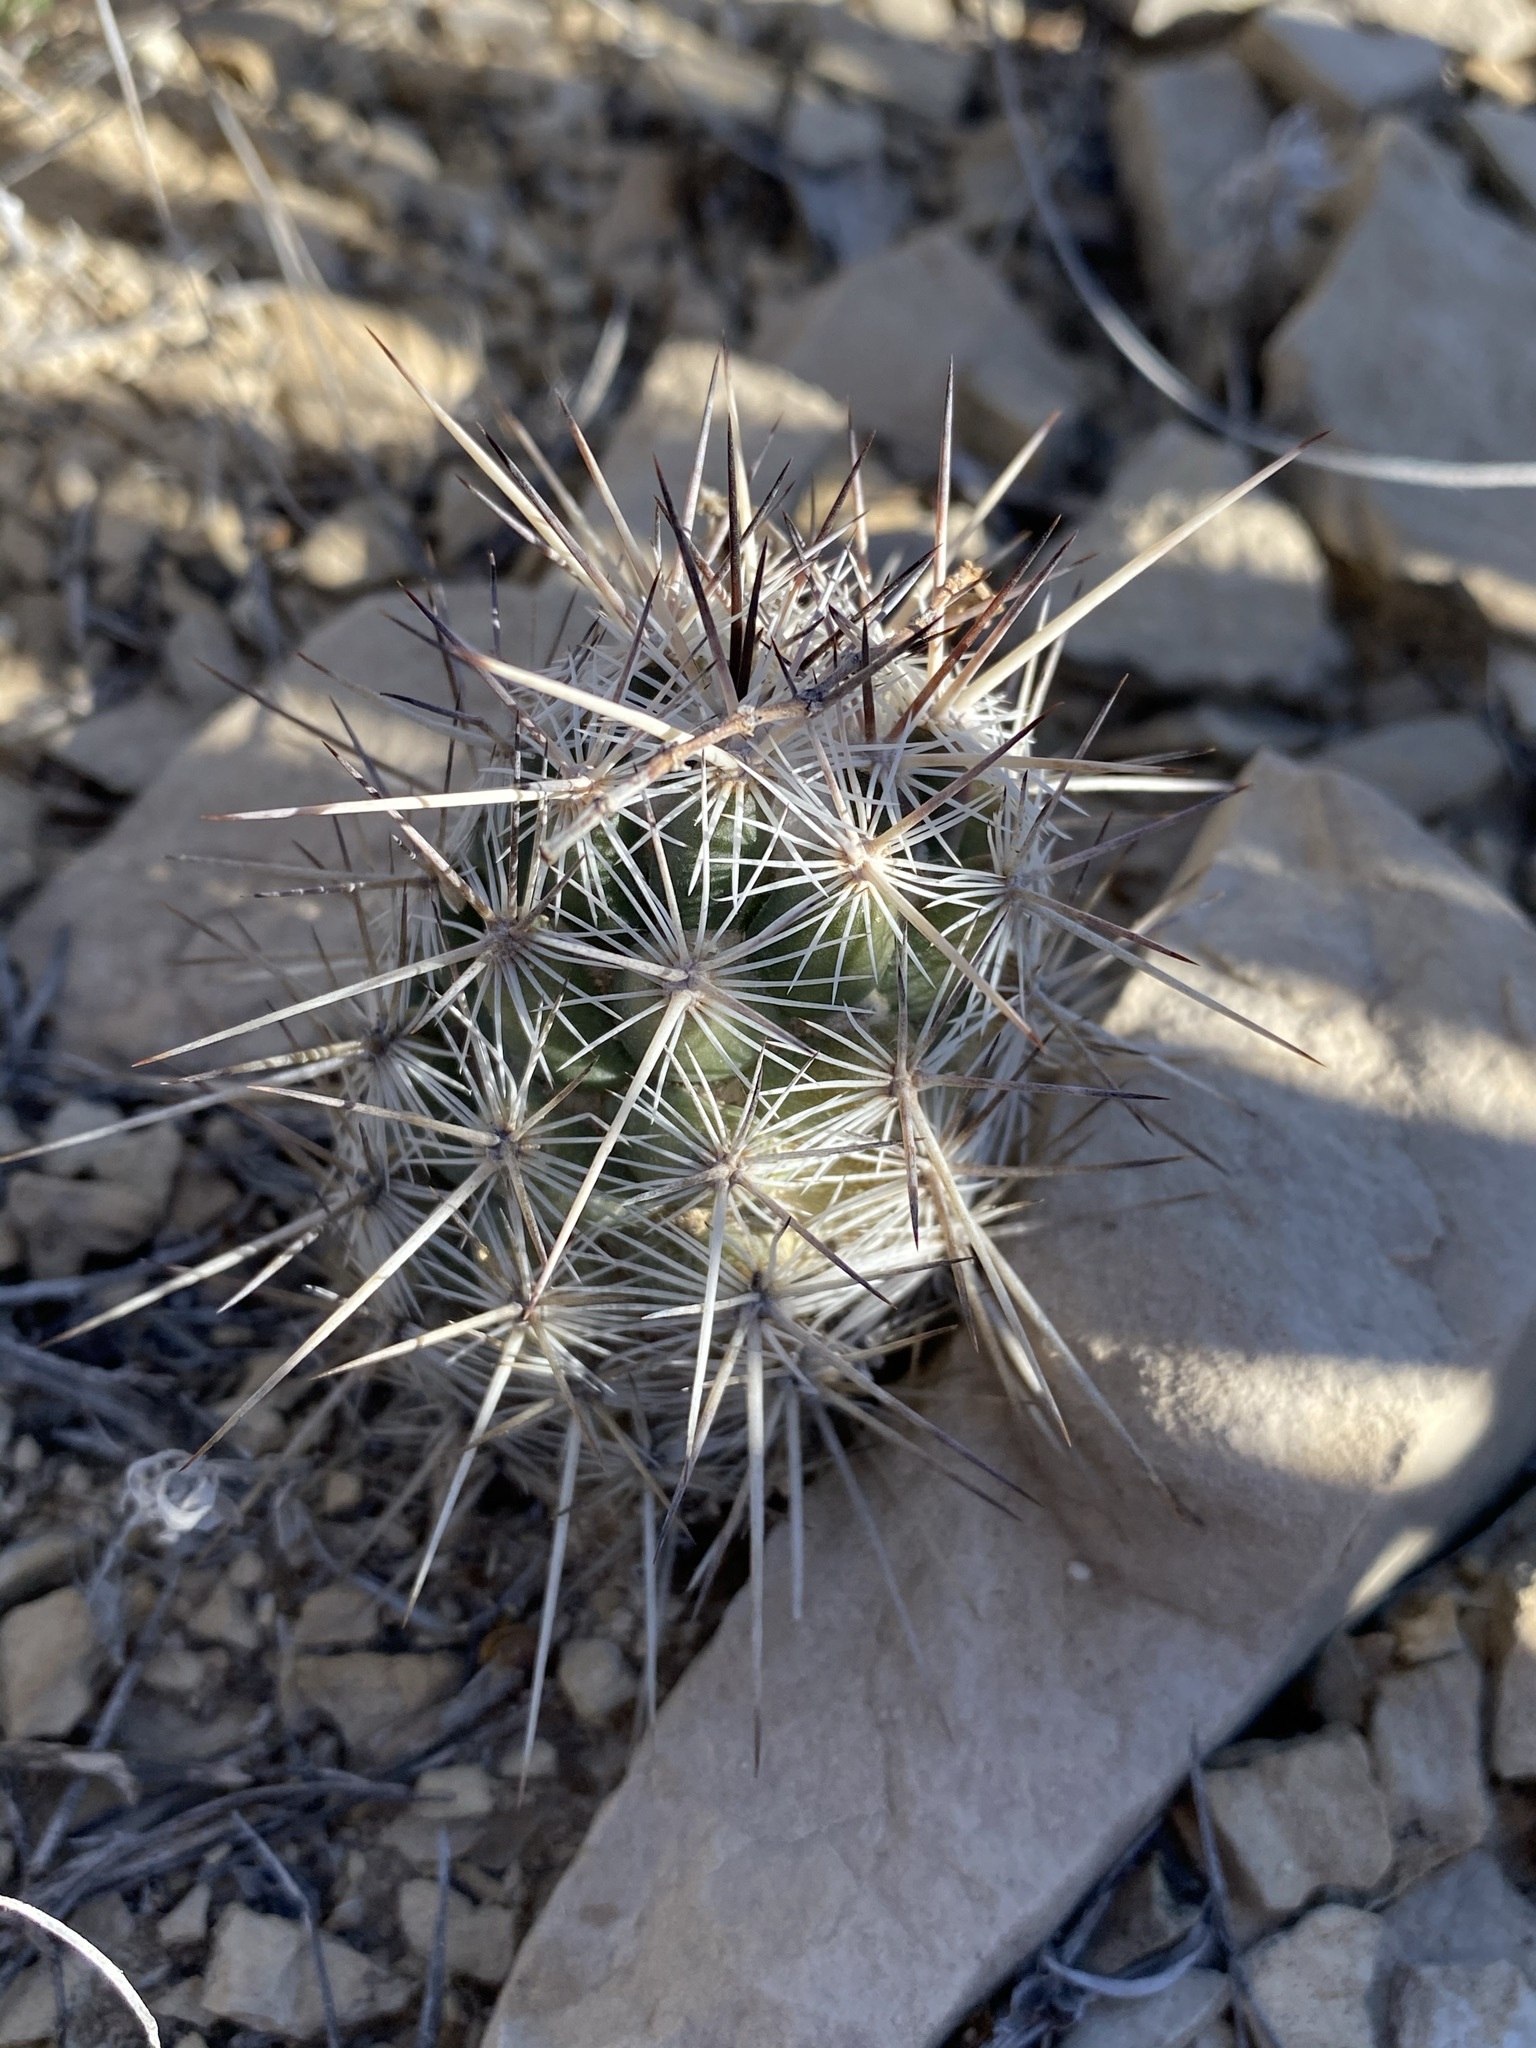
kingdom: Plantae
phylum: Tracheophyta
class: Magnoliopsida
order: Caryophyllales
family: Cactaceae
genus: Cochemiea
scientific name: Cochemiea conoidea
